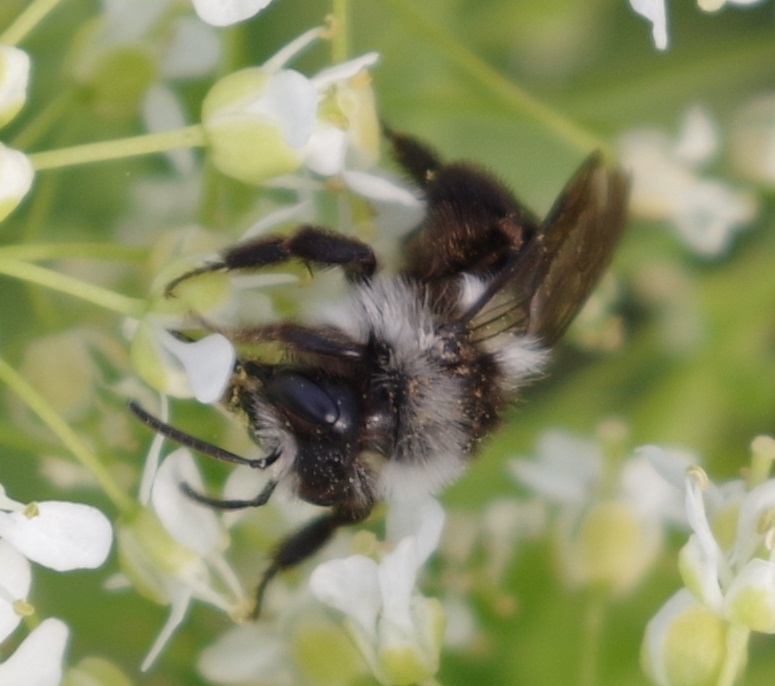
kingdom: Animalia
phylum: Arthropoda
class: Insecta
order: Hymenoptera
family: Andrenidae
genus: Andrena
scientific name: Andrena cineraria
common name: Ashy mining bee
